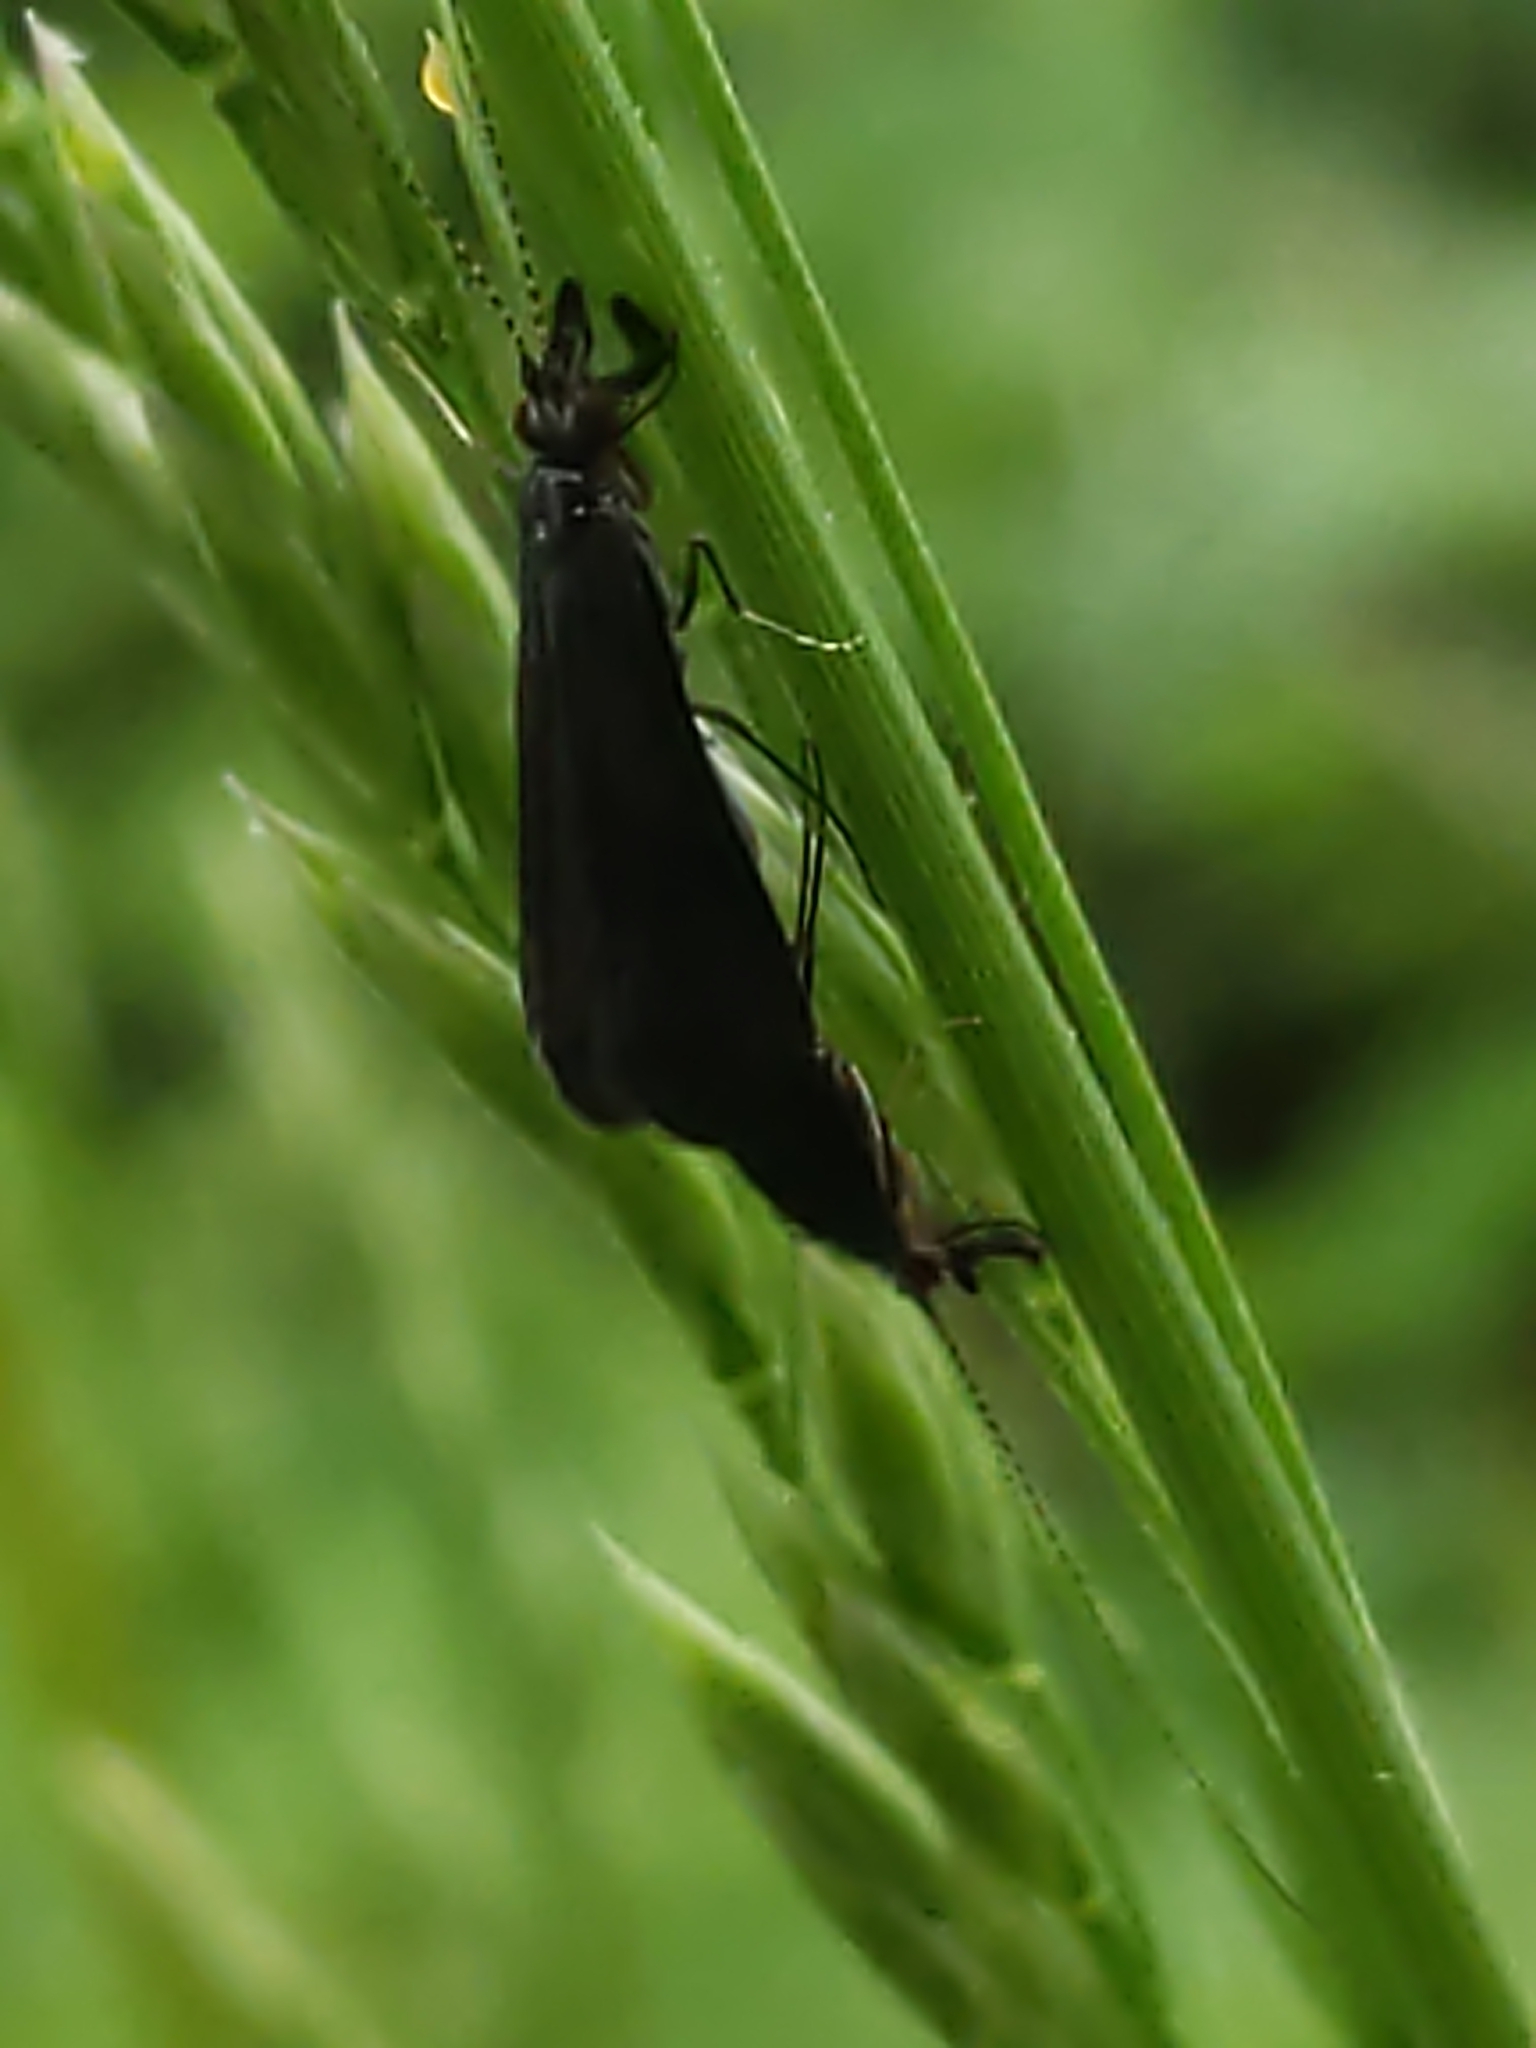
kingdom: Animalia
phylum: Arthropoda
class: Insecta
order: Trichoptera
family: Leptoceridae
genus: Mystacides
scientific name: Mystacides sepulchralis
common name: Black dancer caddisfly
